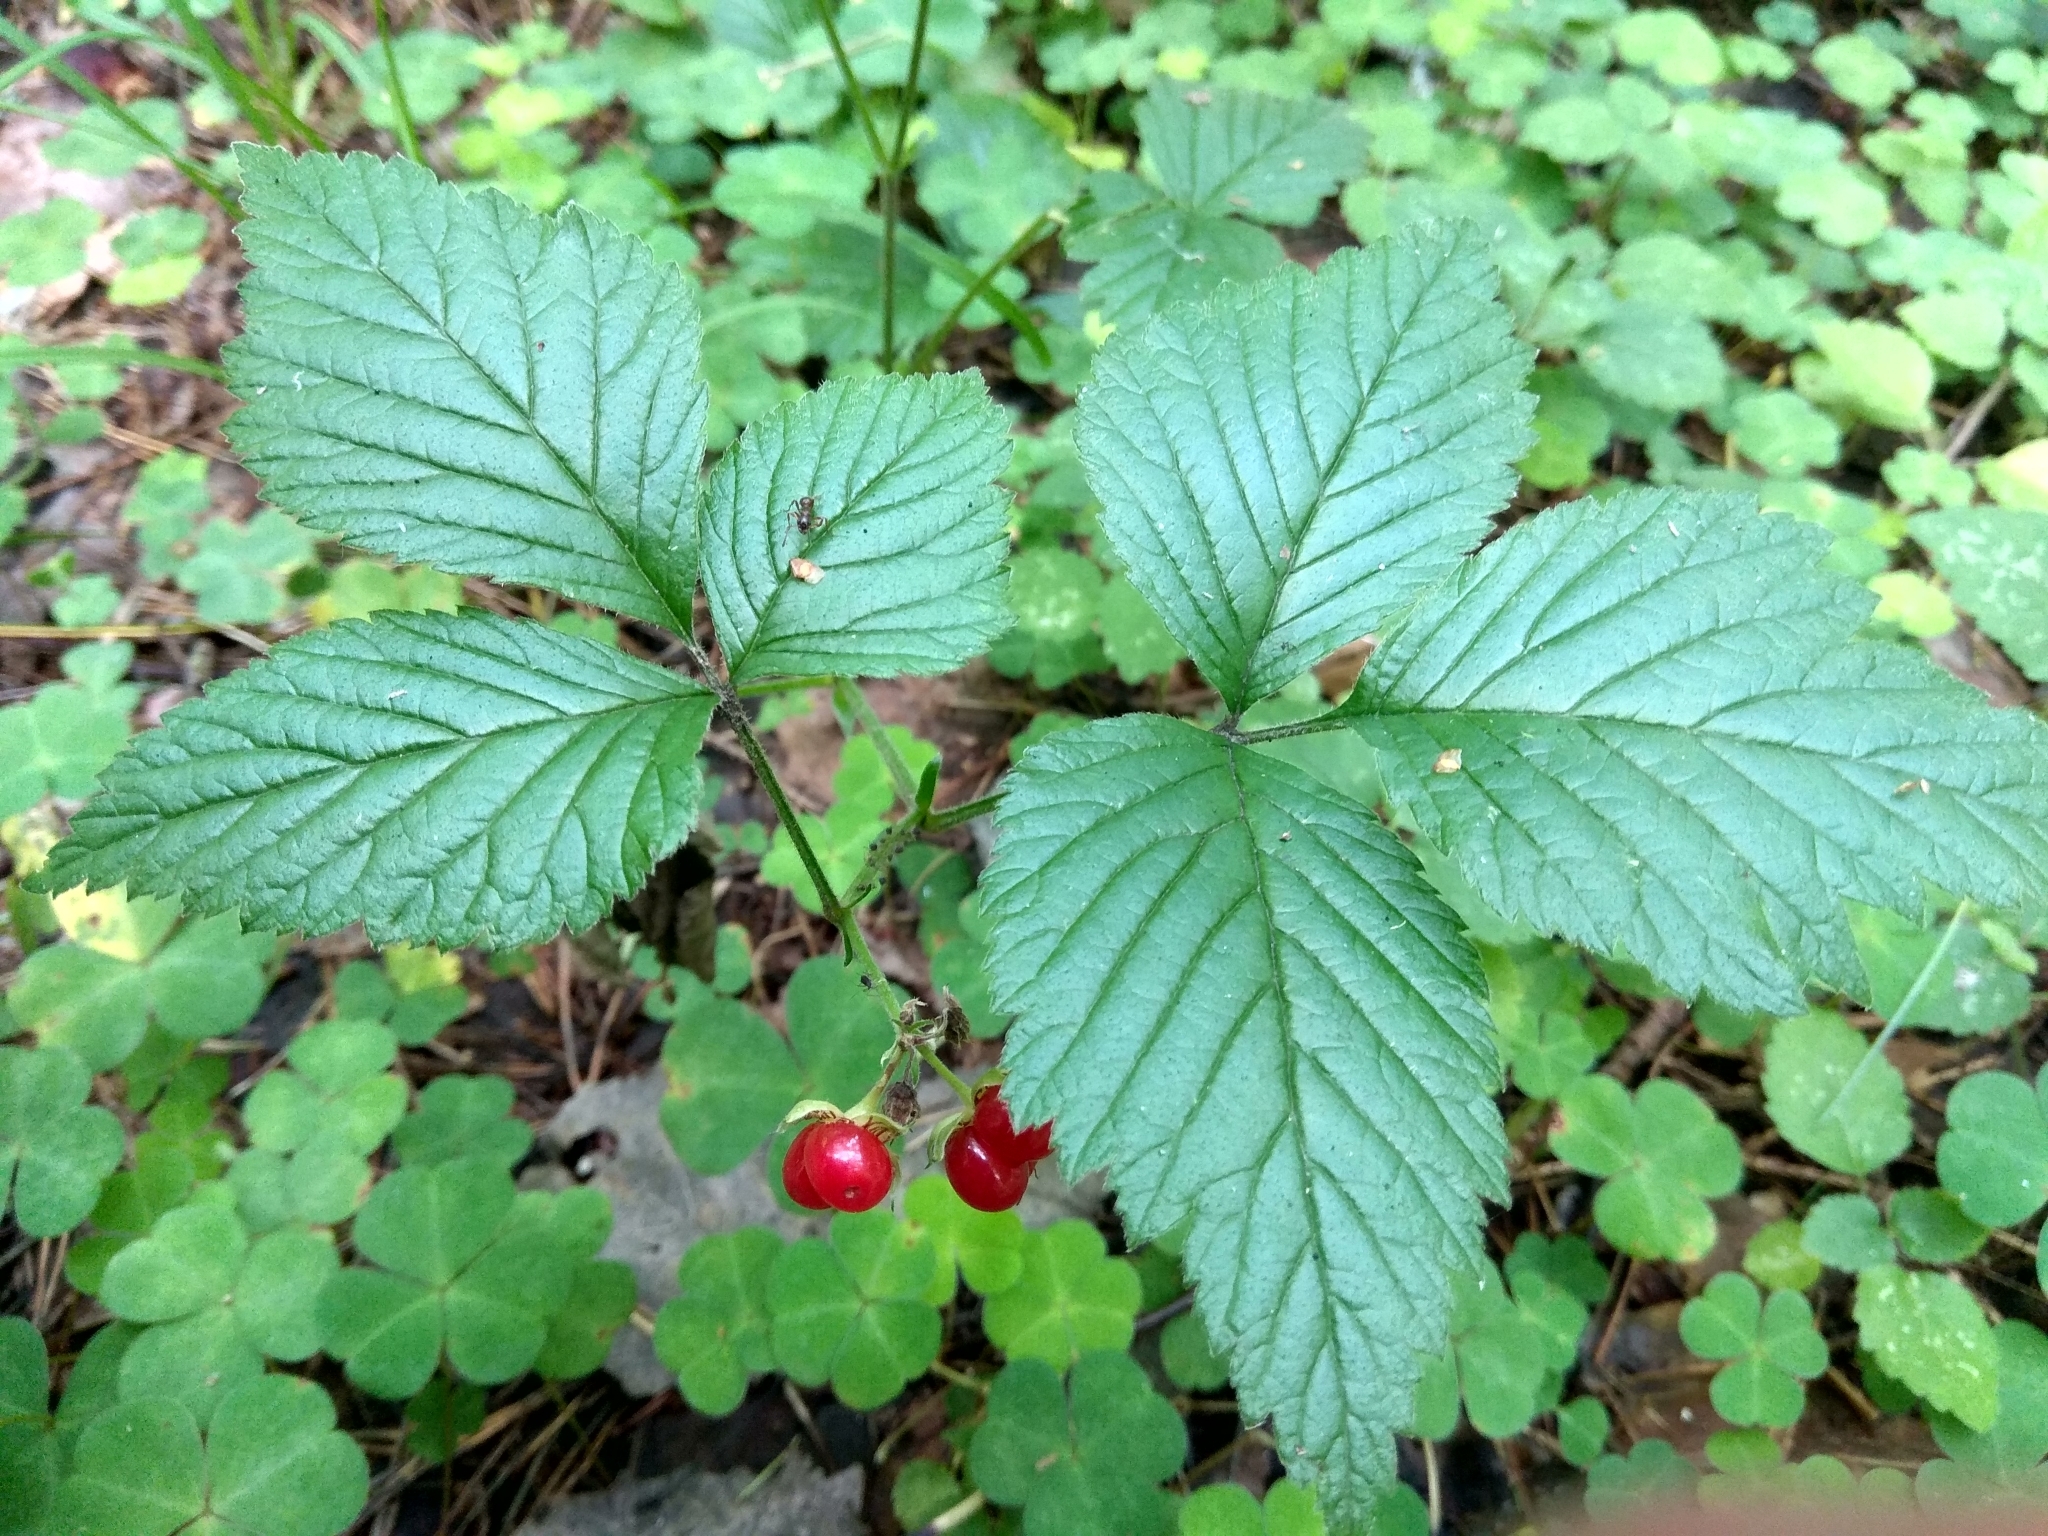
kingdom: Plantae
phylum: Tracheophyta
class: Magnoliopsida
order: Rosales
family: Rosaceae
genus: Rubus
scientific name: Rubus saxatilis
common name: Stone bramble
